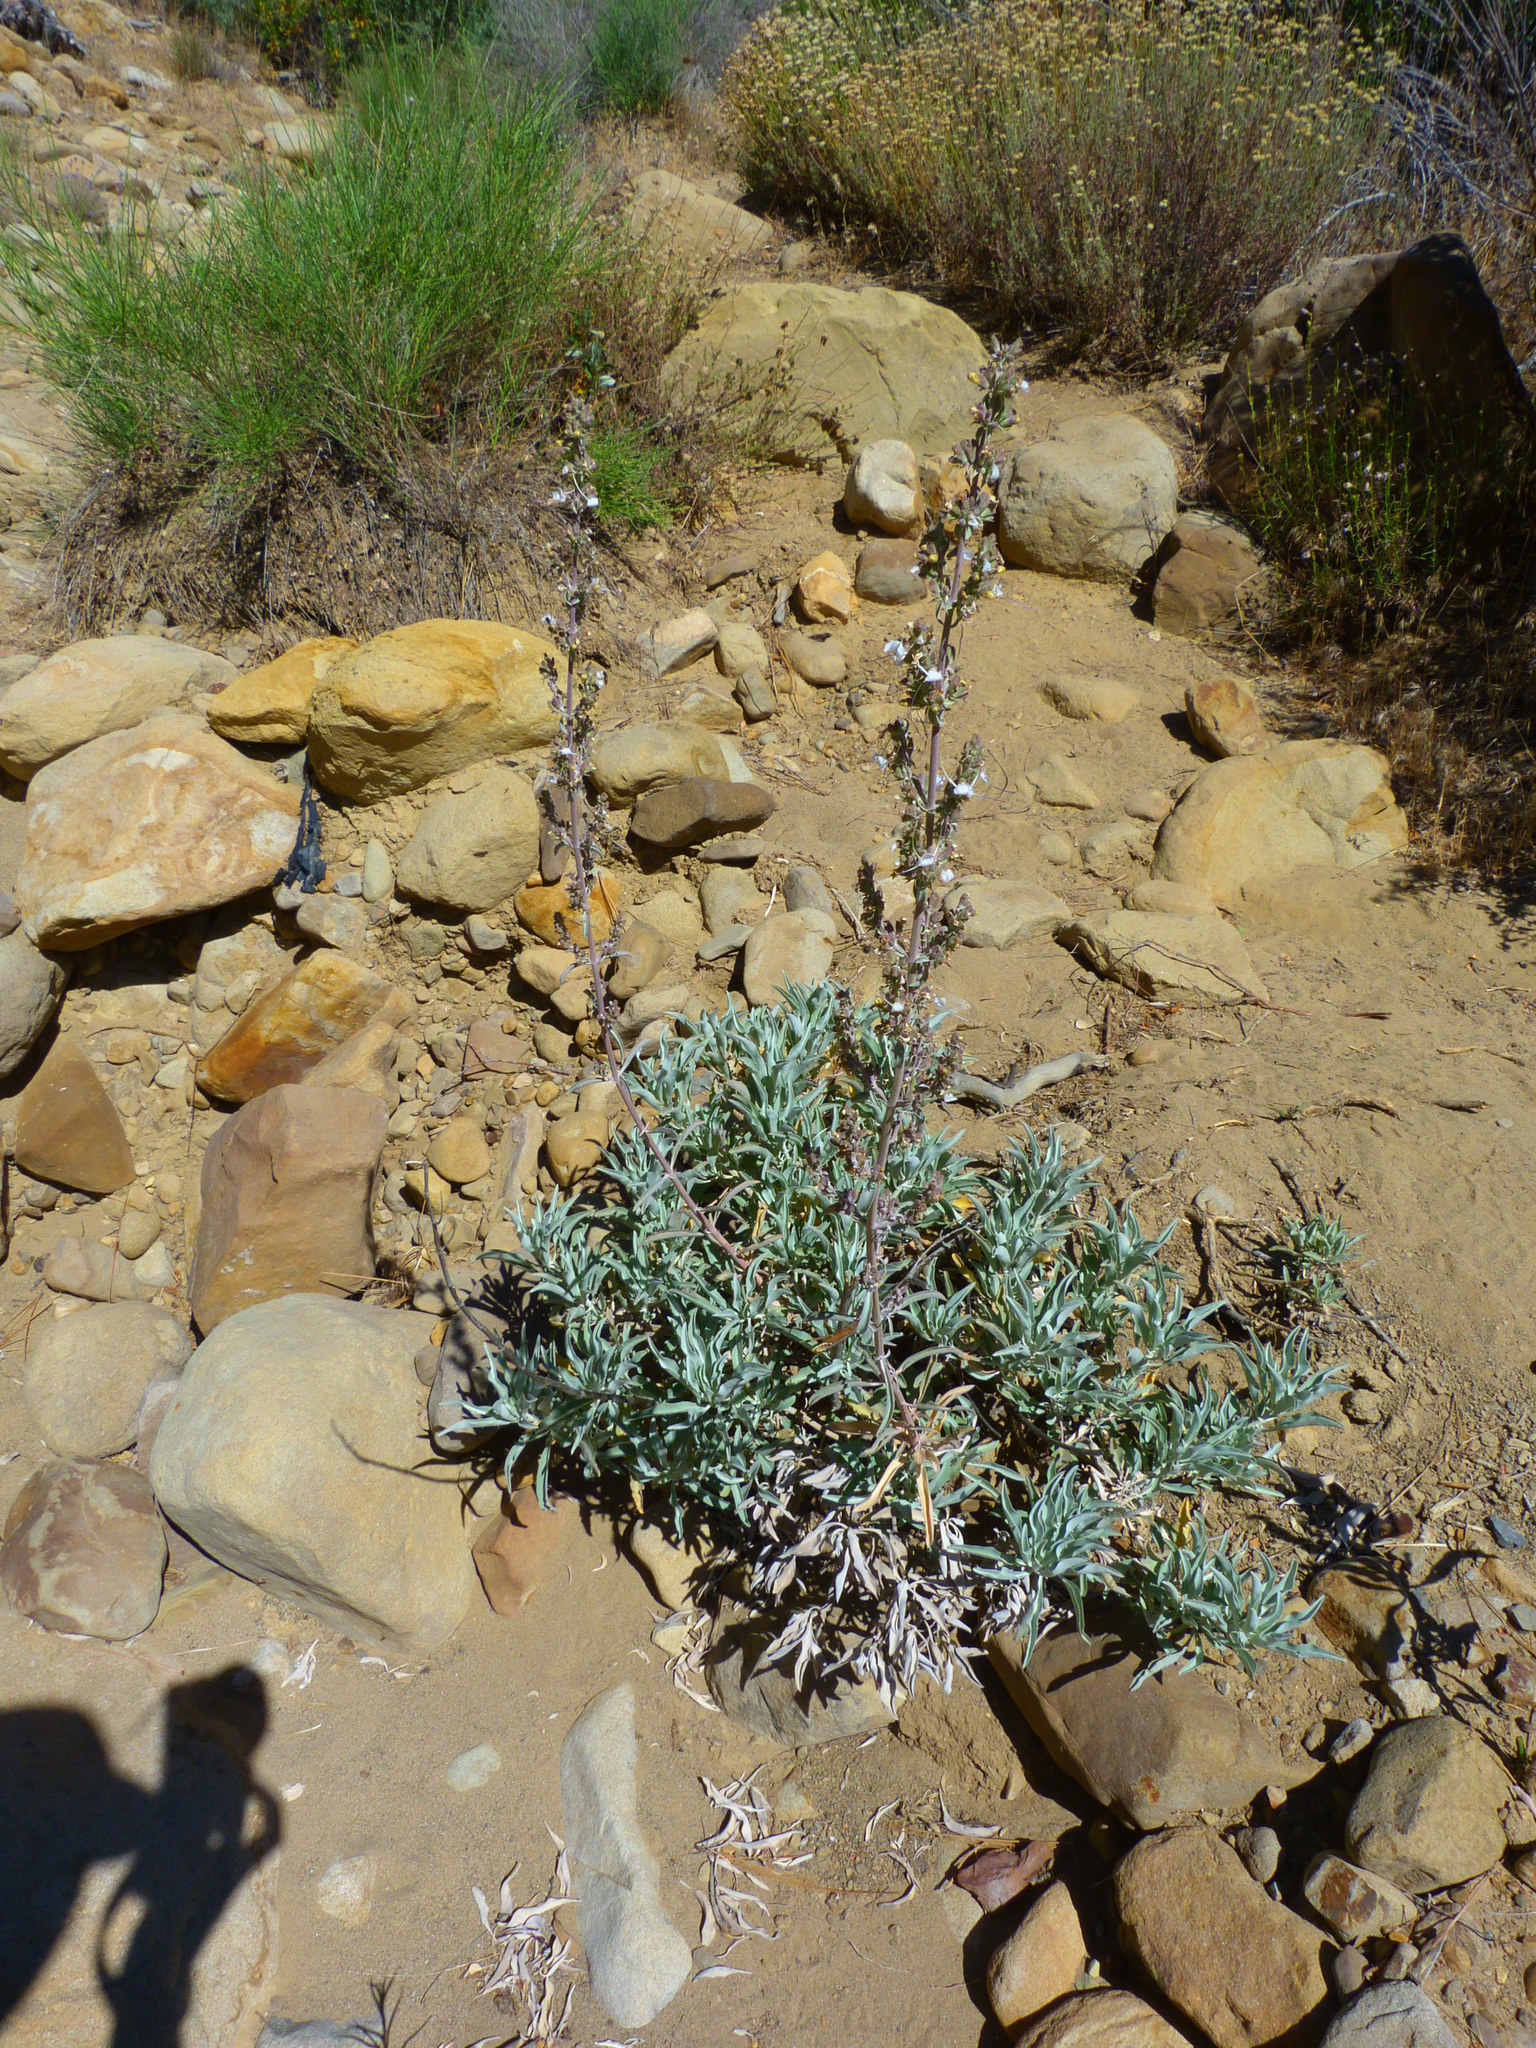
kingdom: Plantae
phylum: Tracheophyta
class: Magnoliopsida
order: Lamiales
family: Lamiaceae
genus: Salvia
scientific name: Salvia apiana
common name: White sage
